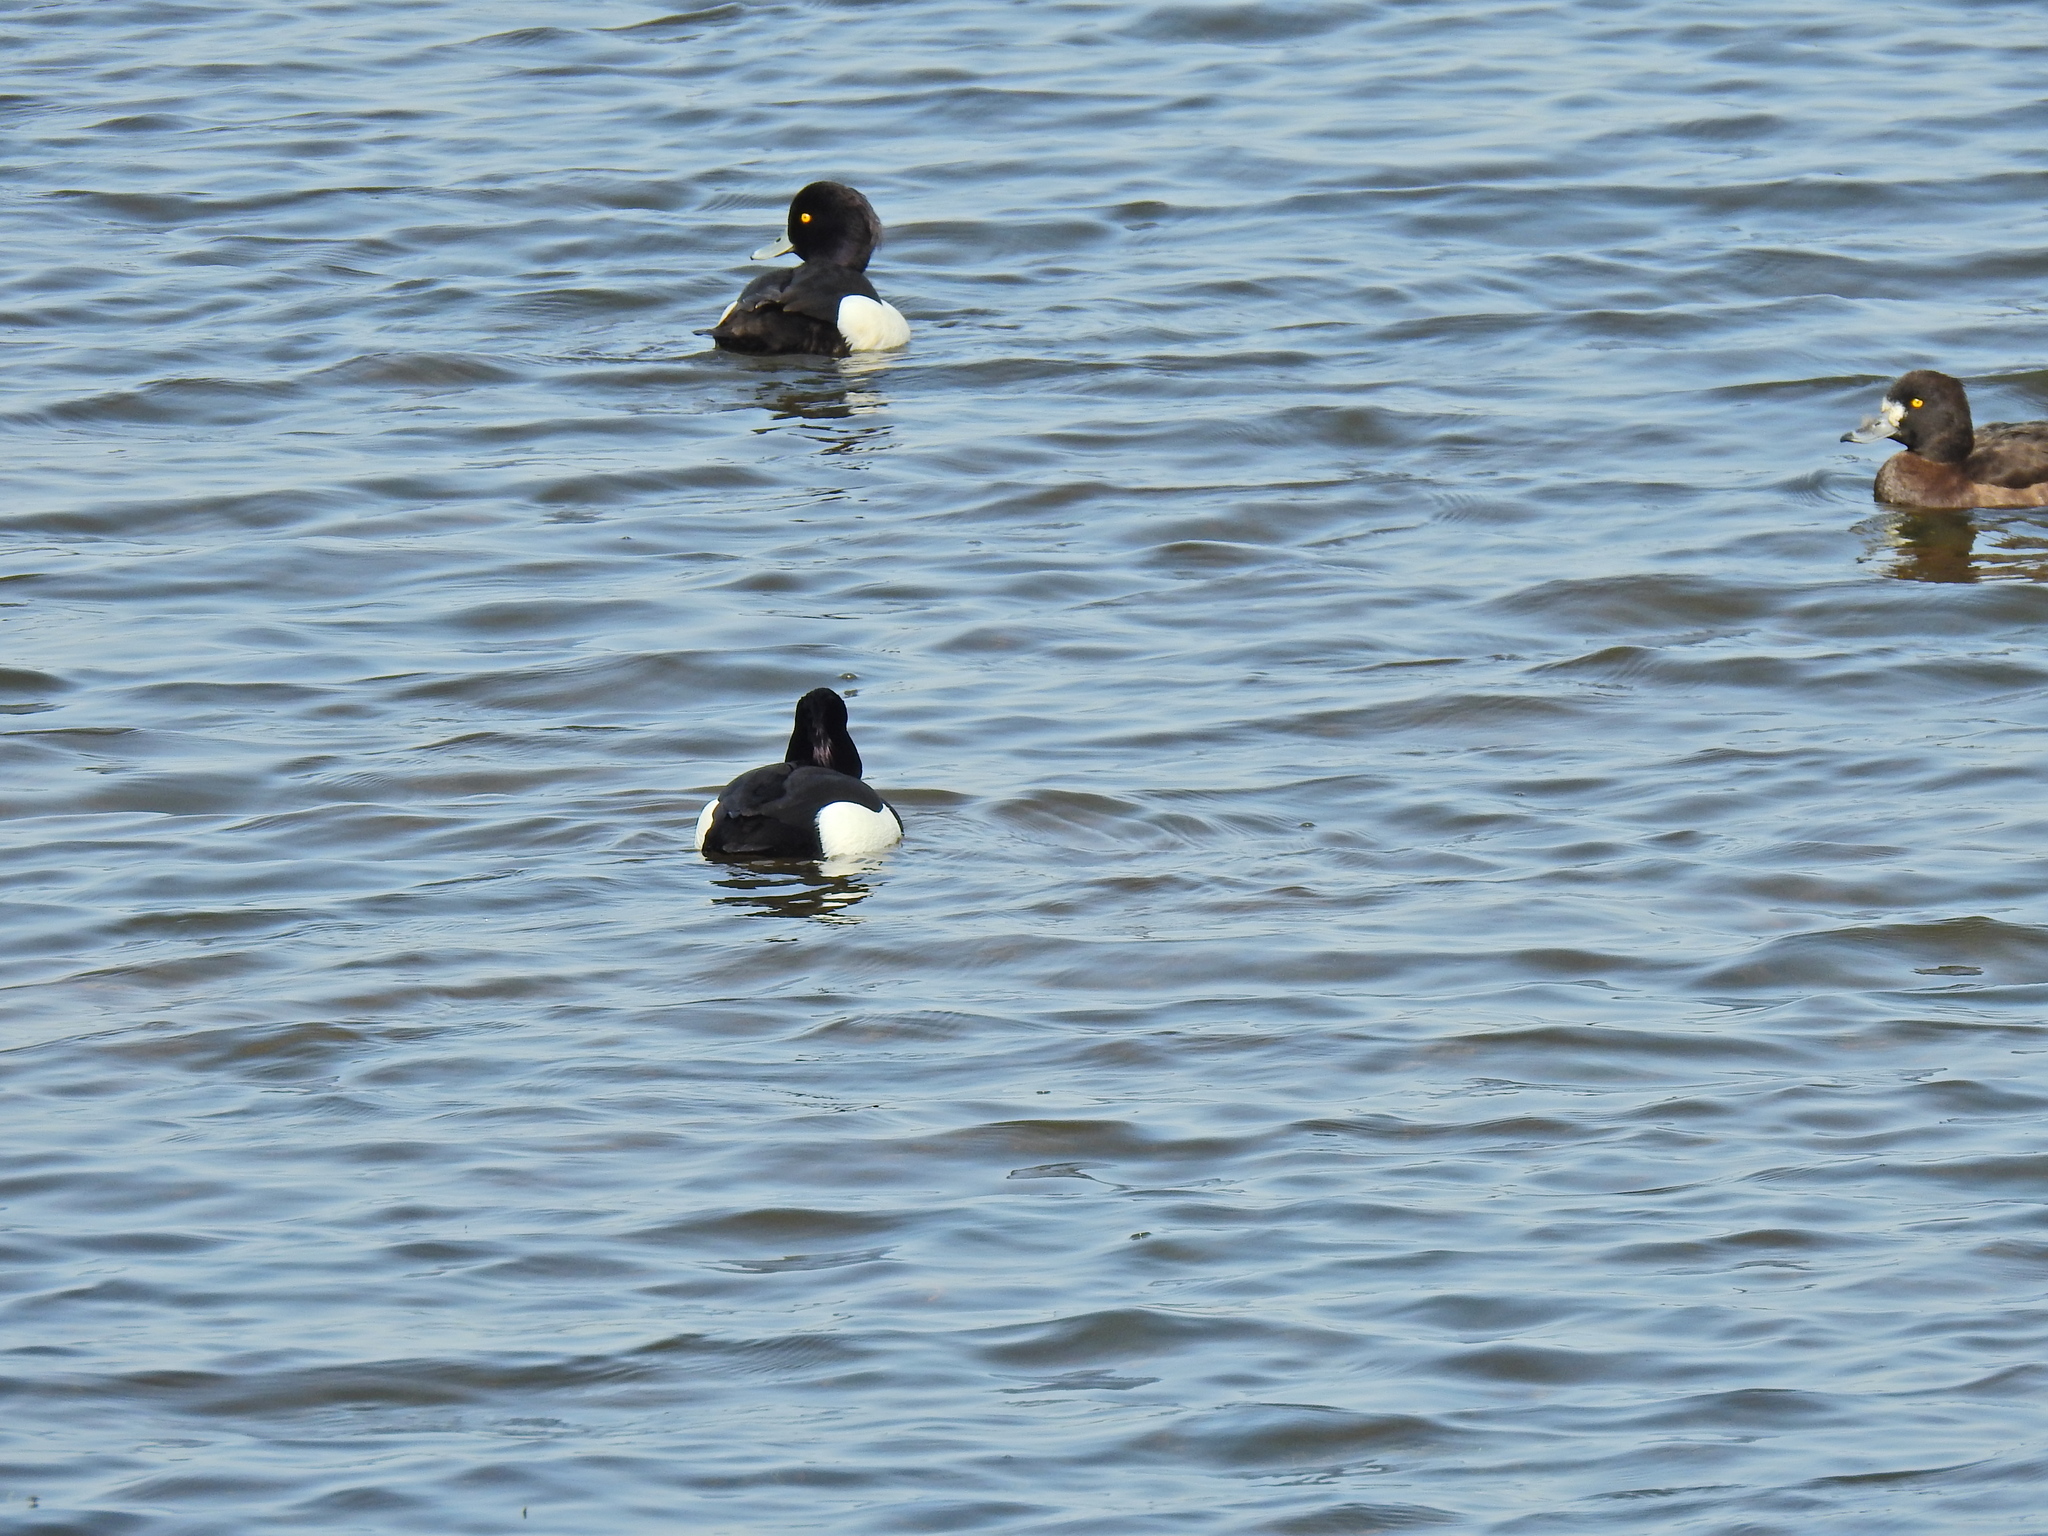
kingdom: Animalia
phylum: Chordata
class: Aves
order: Anseriformes
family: Anatidae
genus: Aythya
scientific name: Aythya fuligula
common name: Tufted duck
